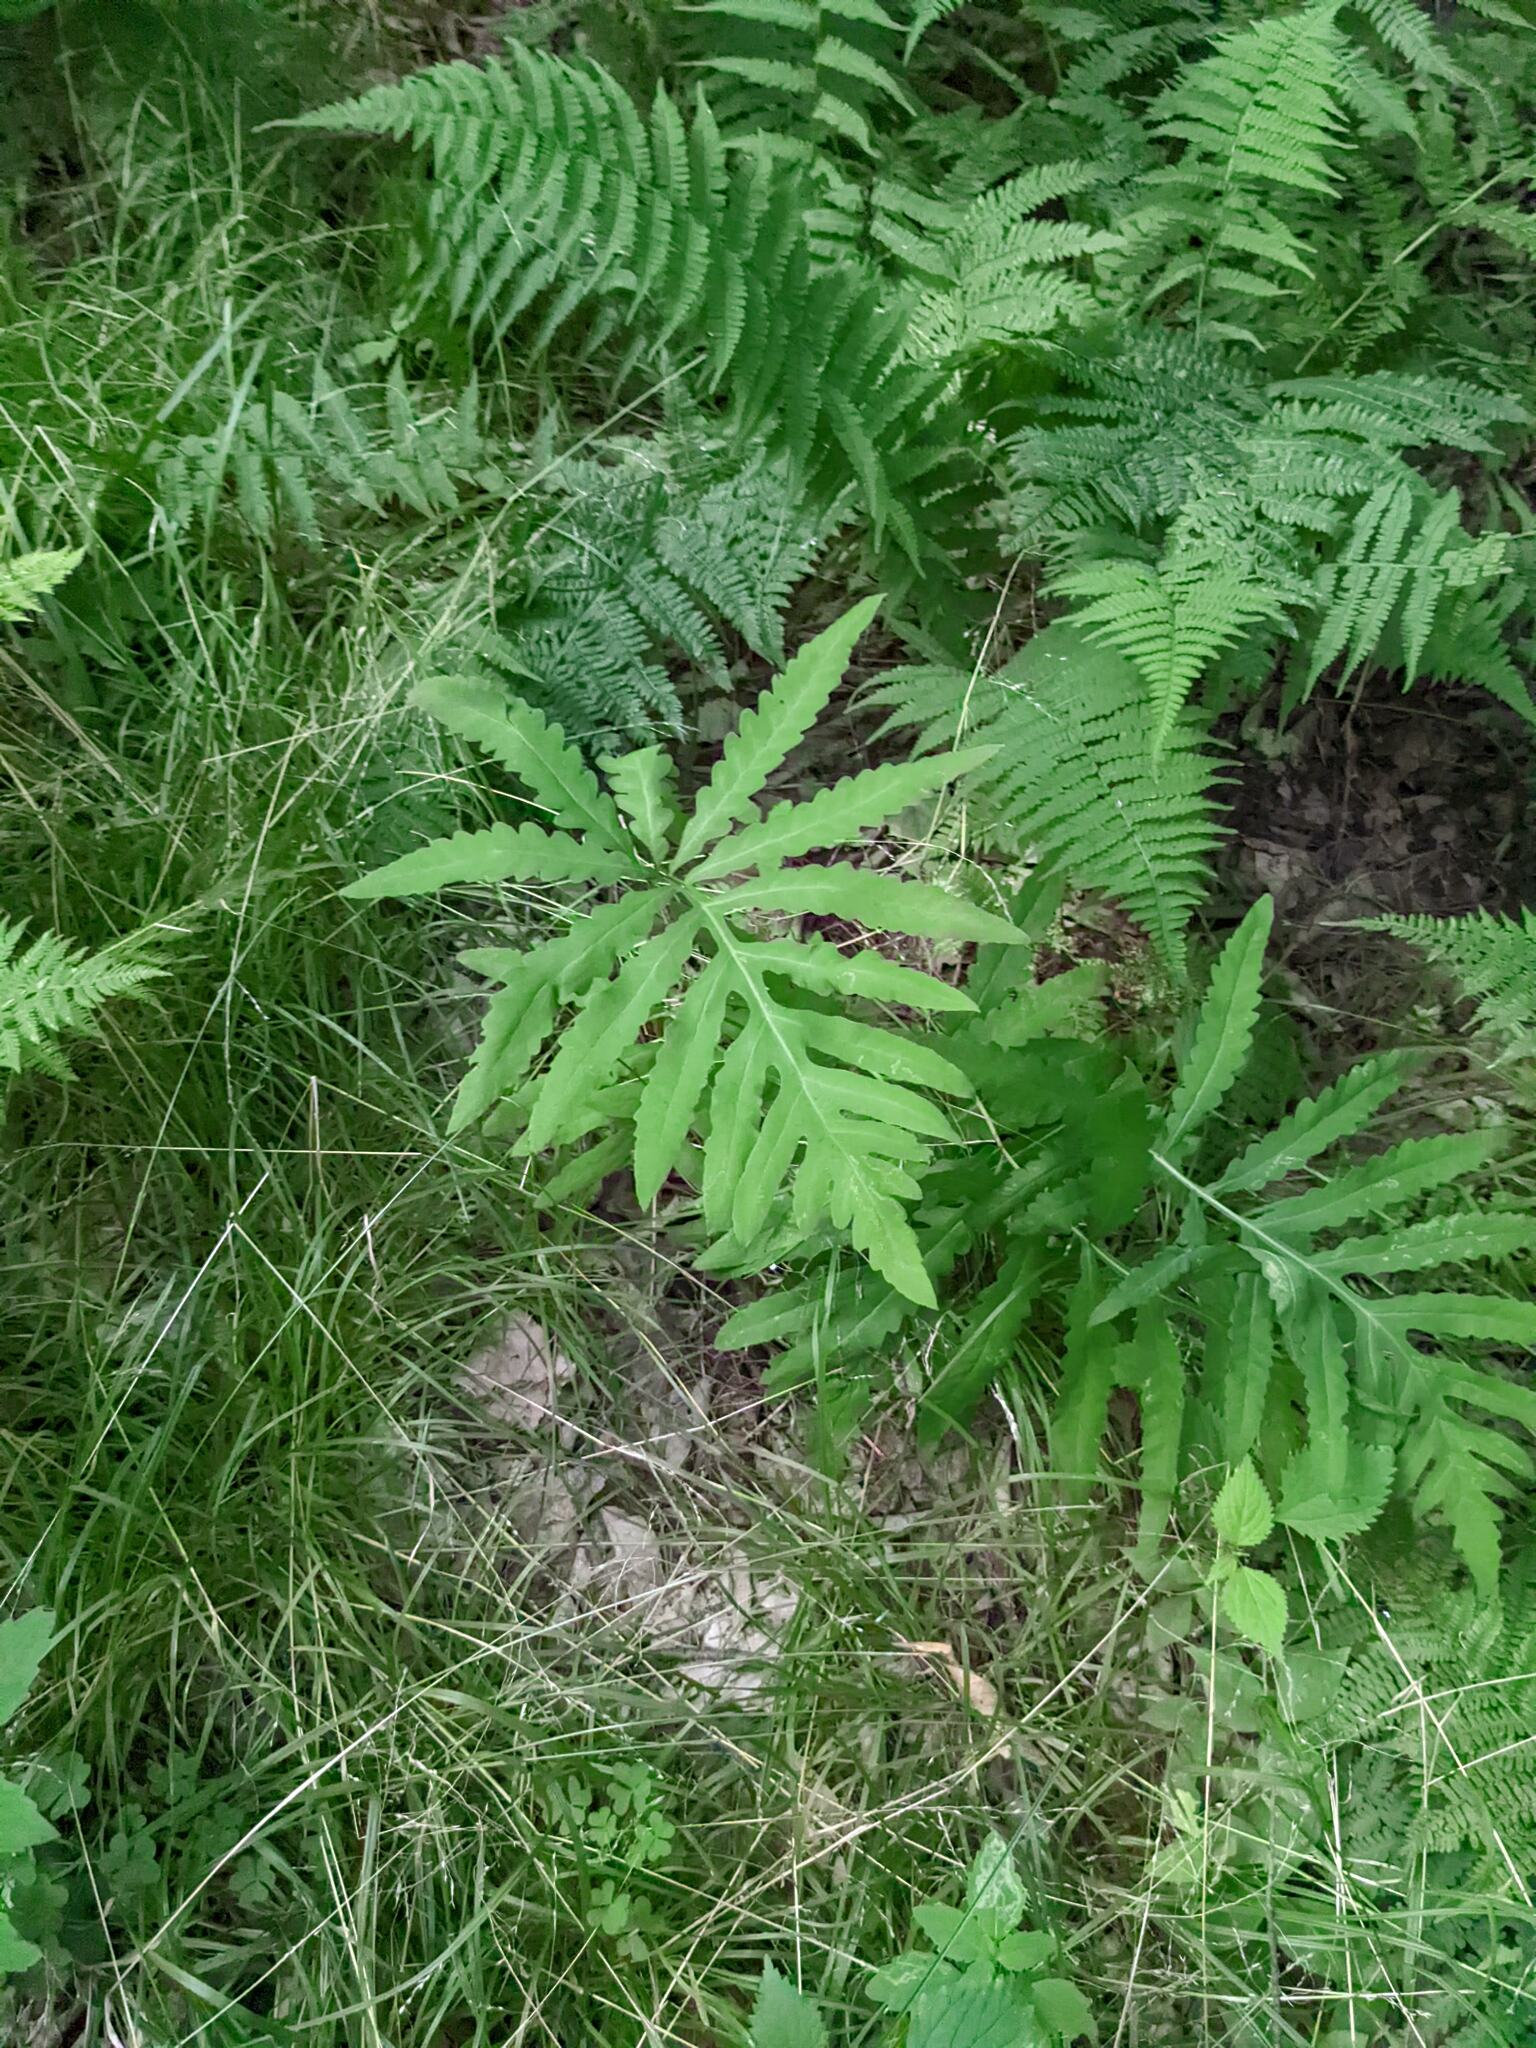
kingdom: Plantae
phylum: Tracheophyta
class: Polypodiopsida
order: Polypodiales
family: Onocleaceae
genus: Onoclea
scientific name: Onoclea sensibilis
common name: Sensitive fern
